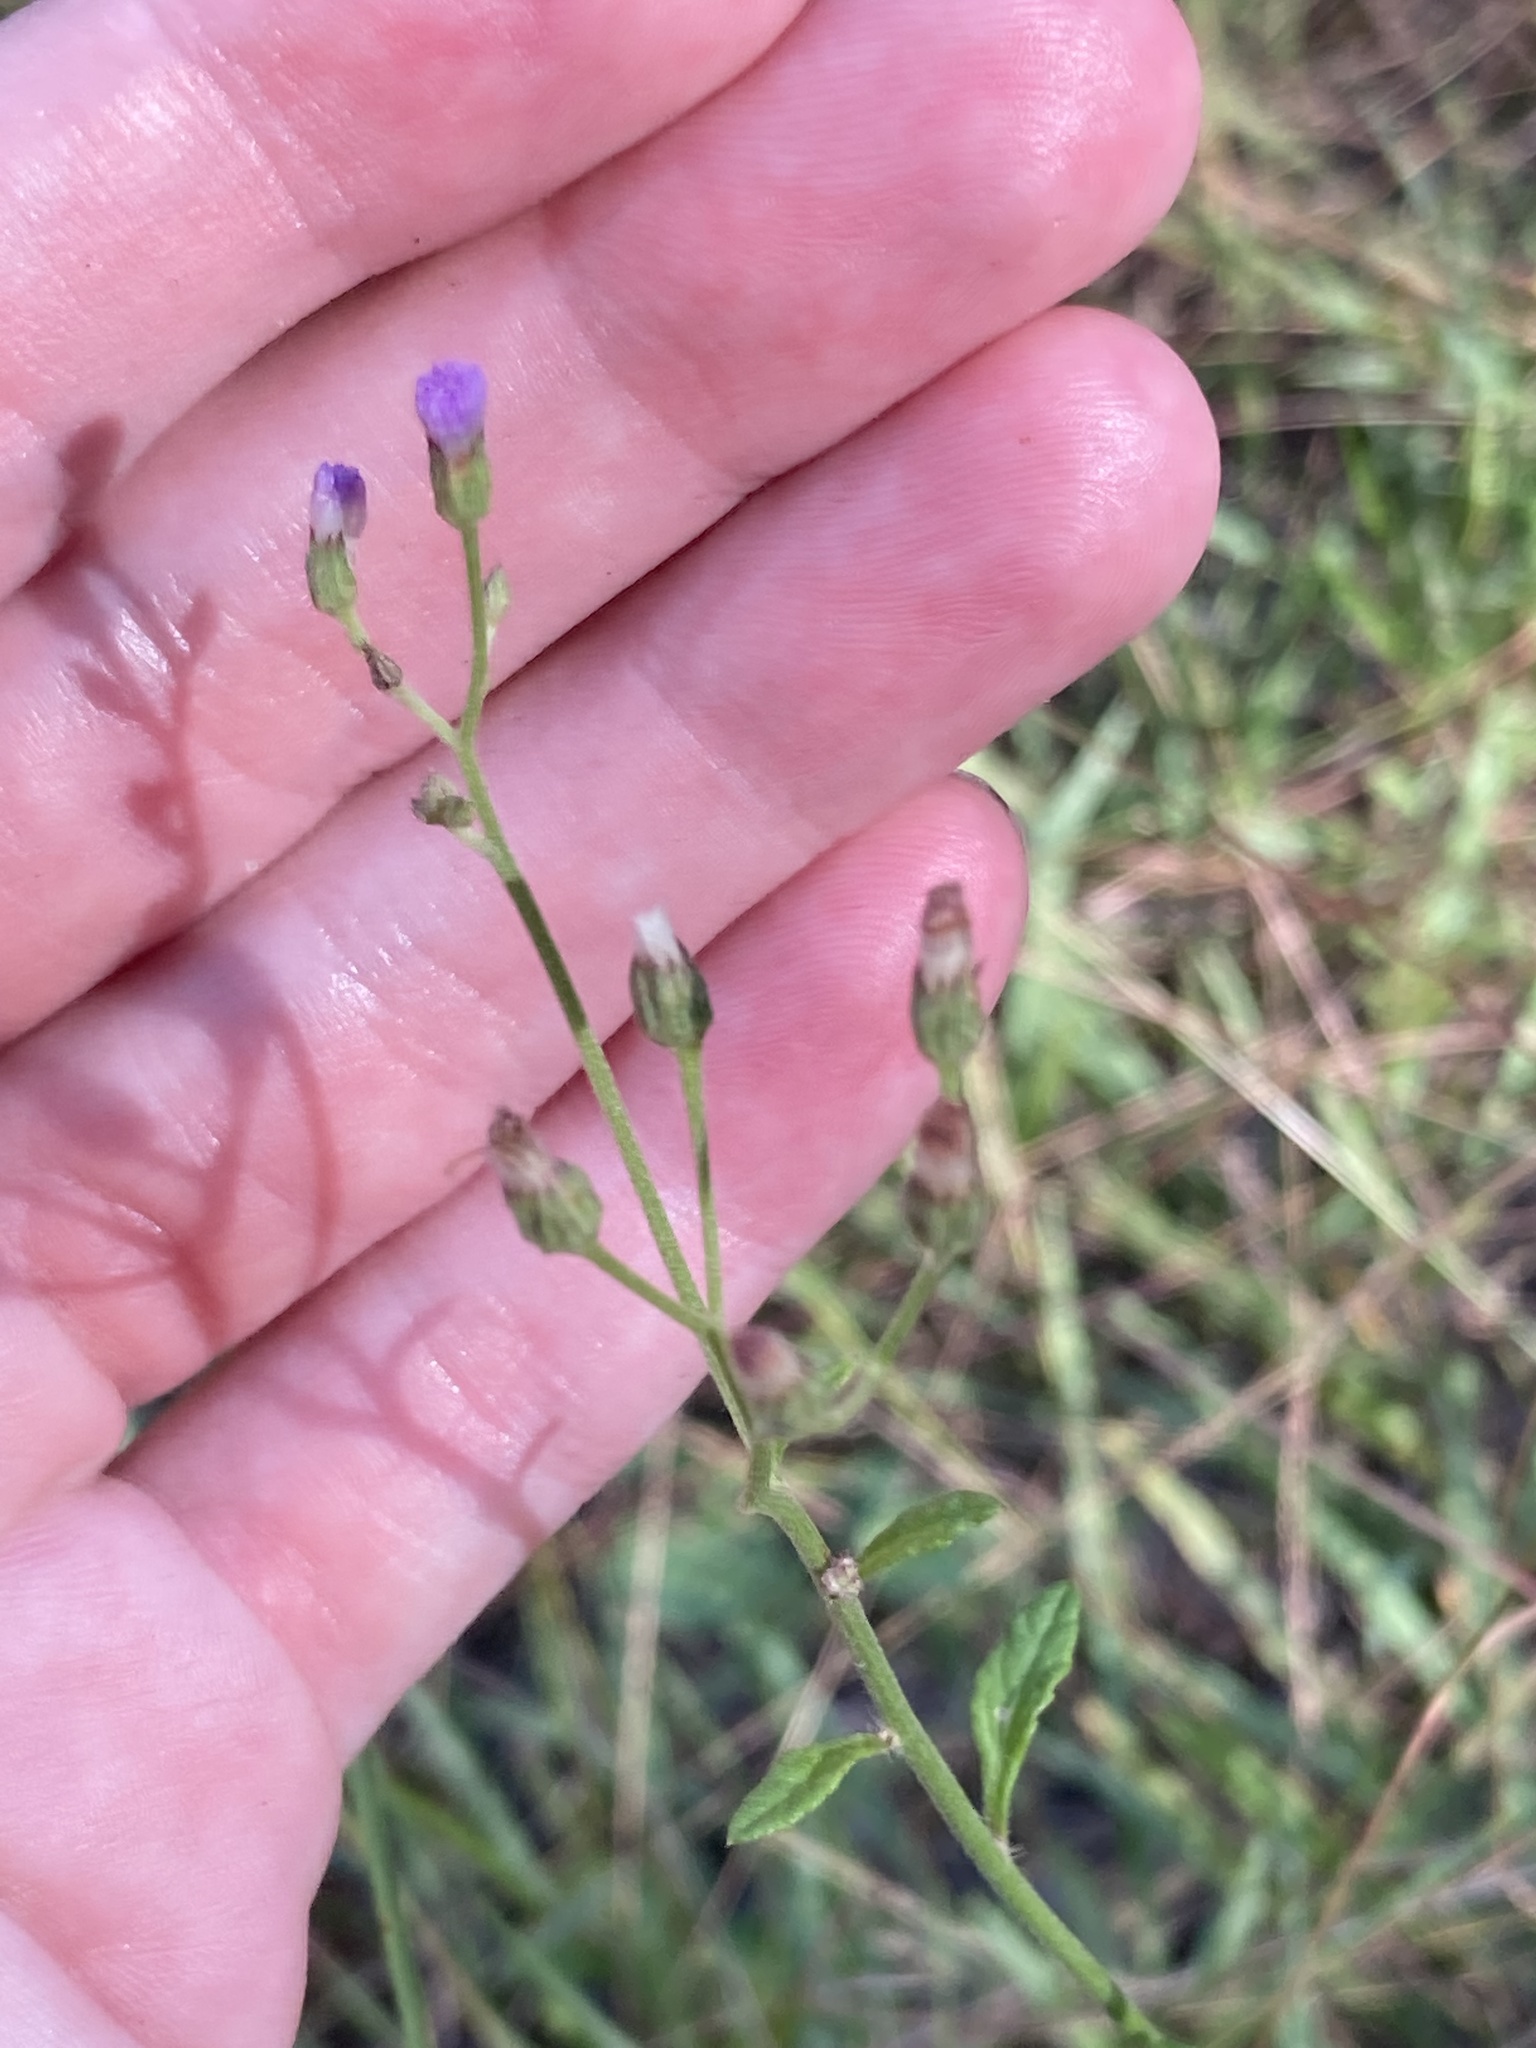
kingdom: Plantae
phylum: Tracheophyta
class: Magnoliopsida
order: Asterales
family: Asteraceae
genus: Cyanthillium
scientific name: Cyanthillium cinereum
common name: Little ironweed
